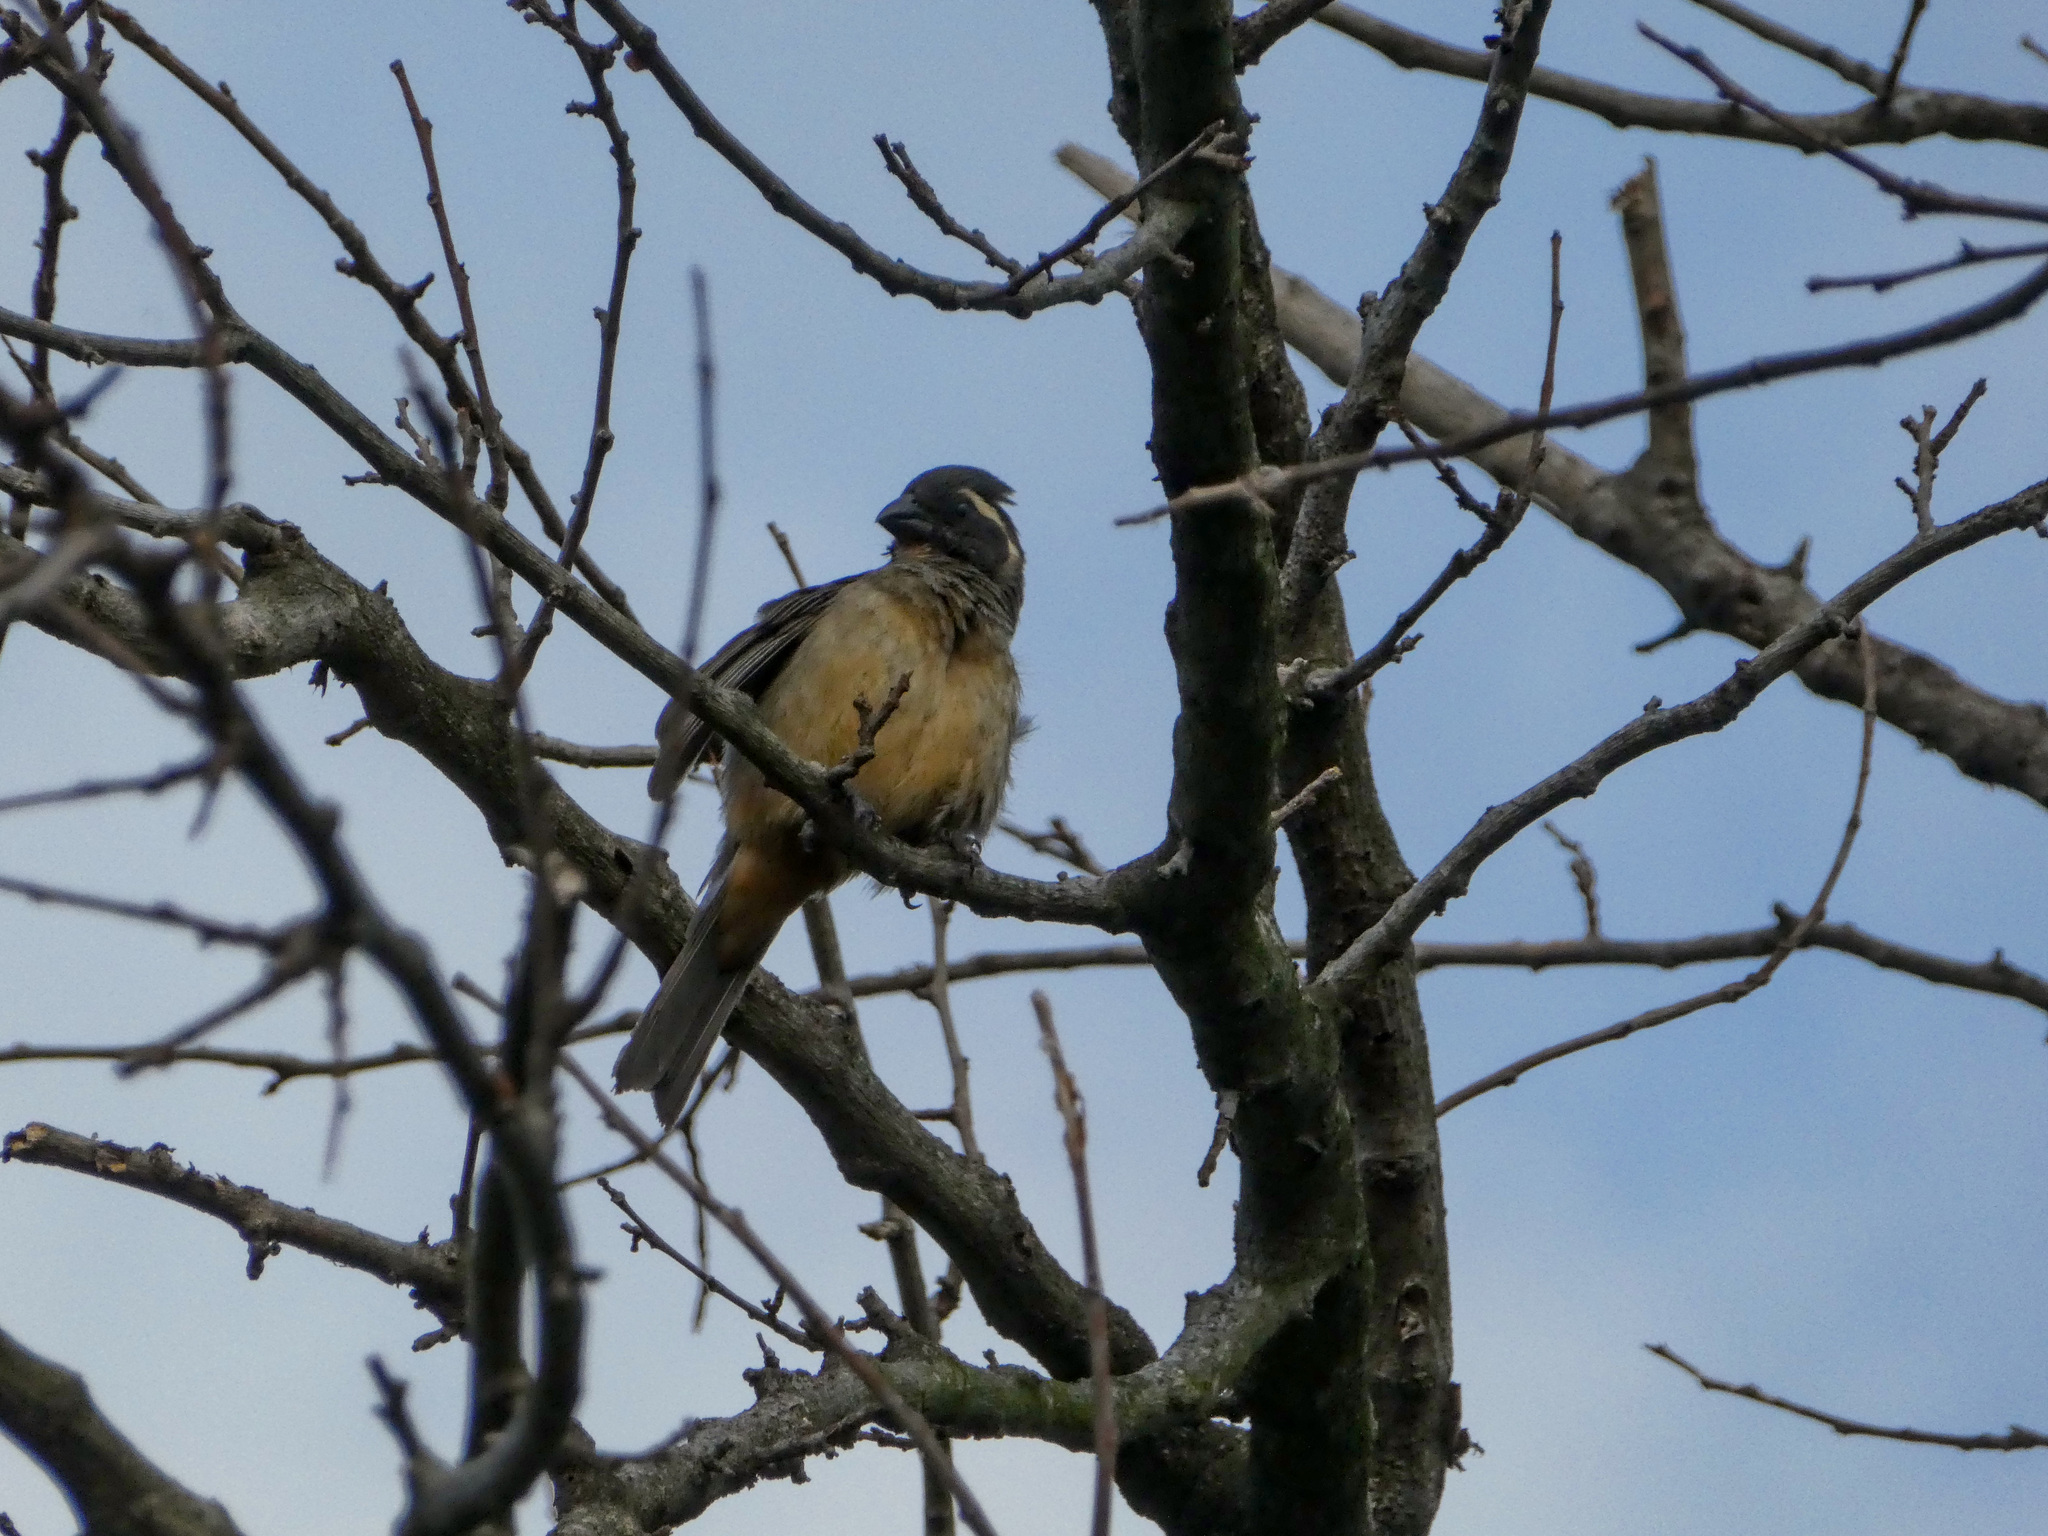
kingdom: Animalia
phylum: Chordata
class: Aves
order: Passeriformes
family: Thraupidae
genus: Saltator
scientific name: Saltator aurantiirostris
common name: Golden-billed saltator
